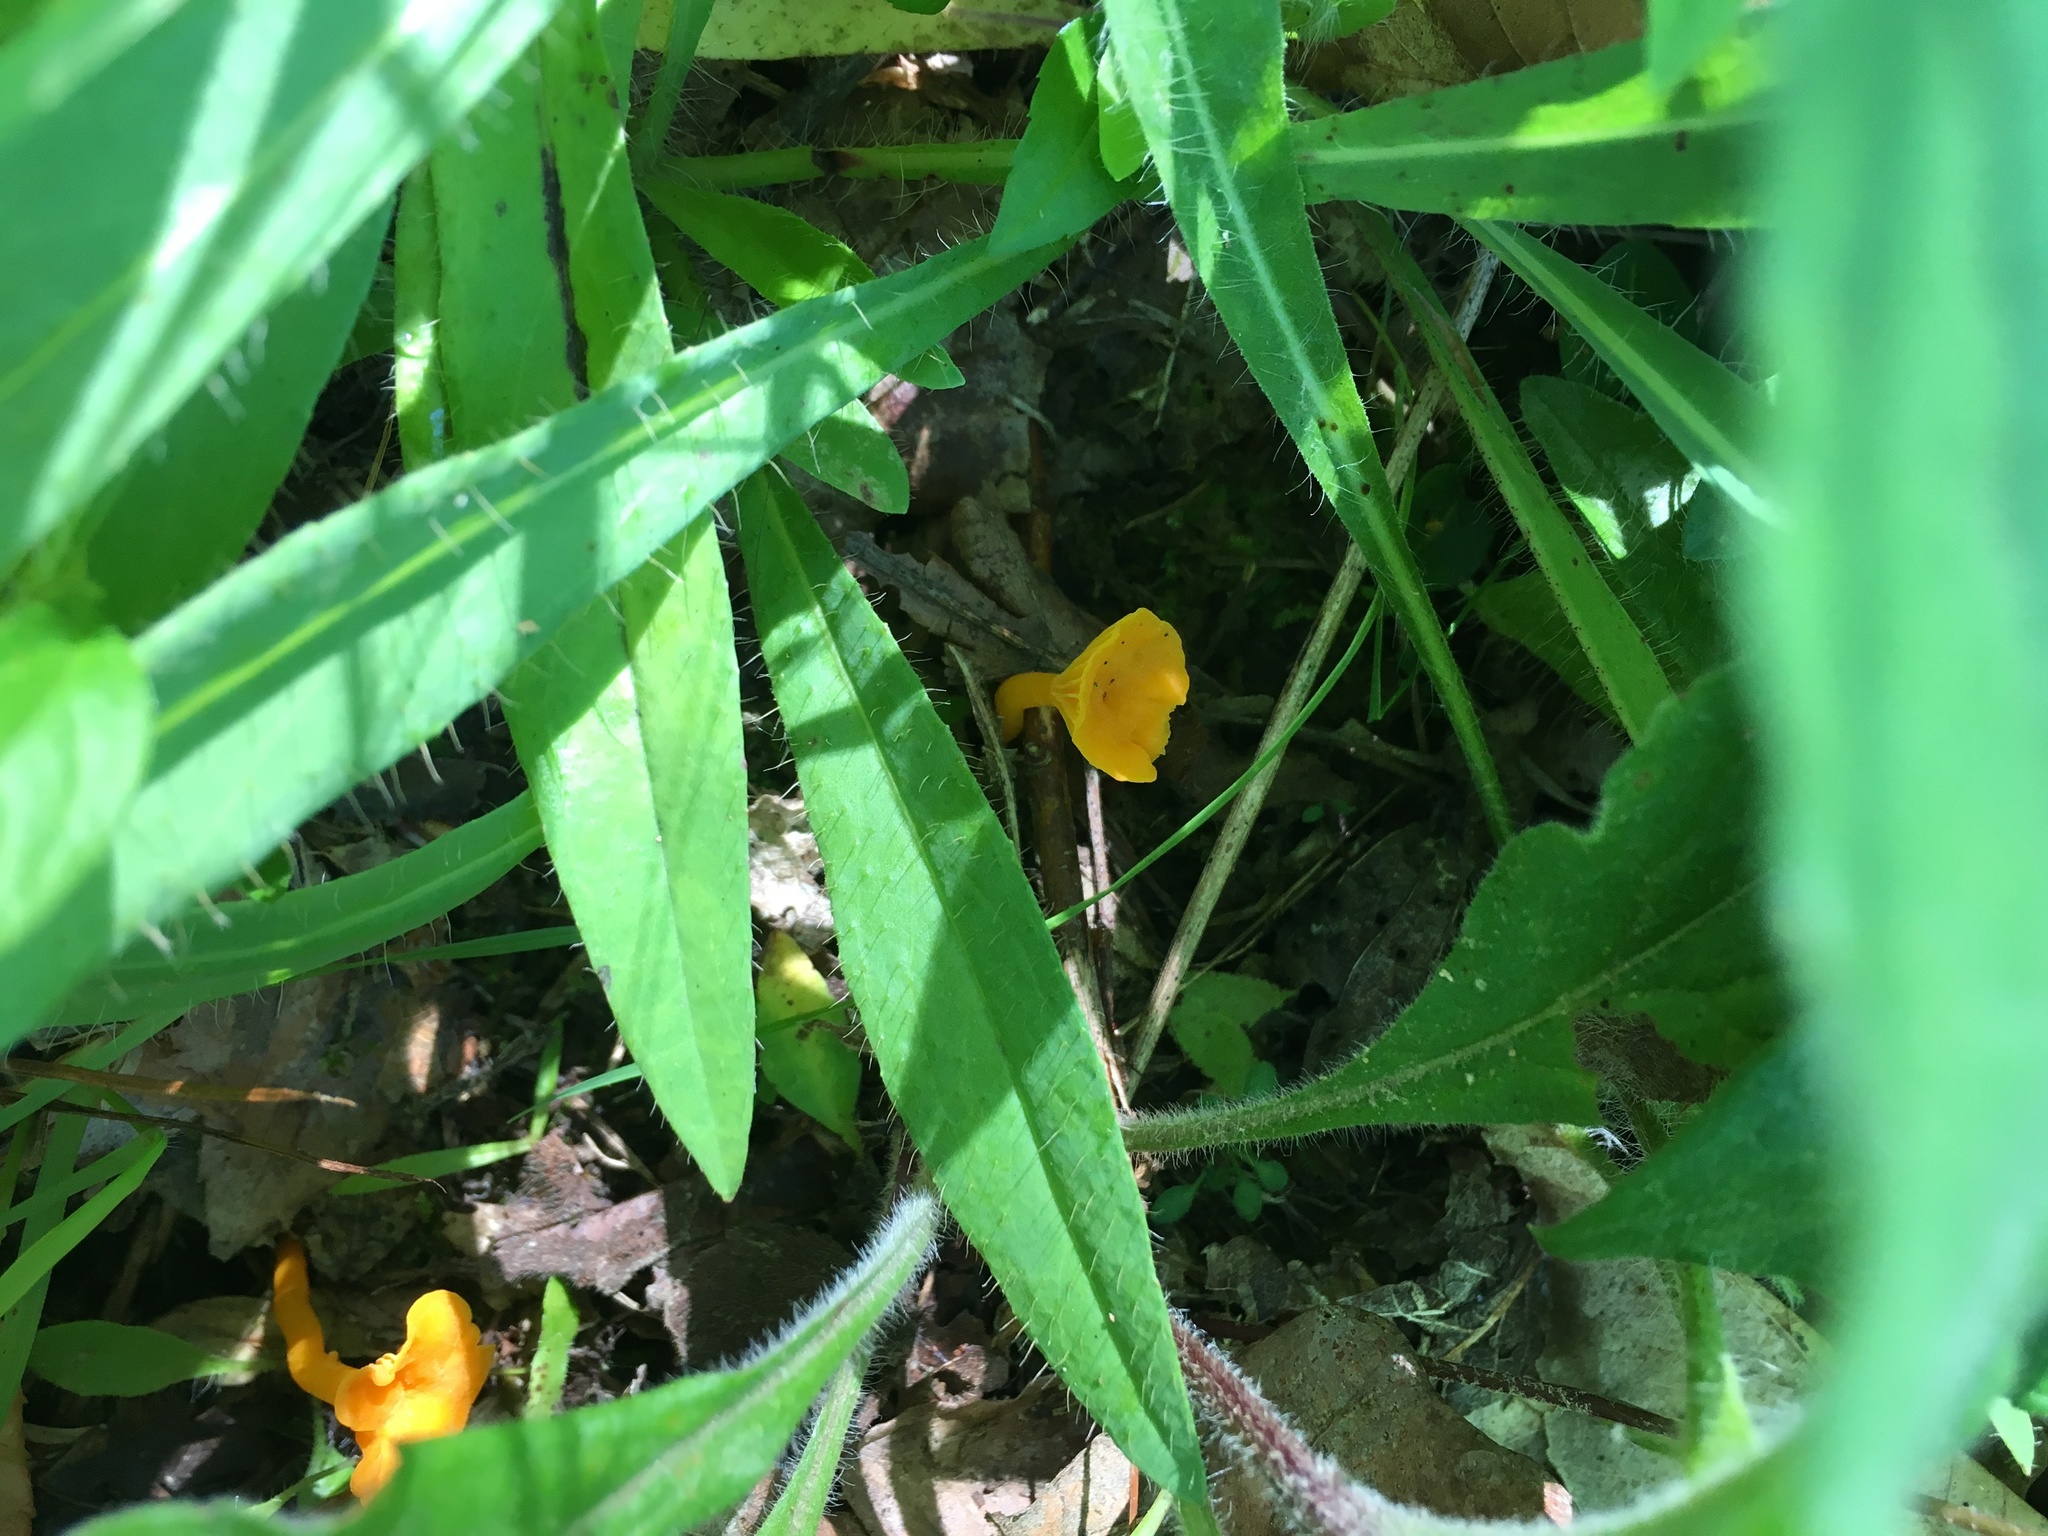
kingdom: Fungi
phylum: Basidiomycota
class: Agaricomycetes
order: Cantharellales
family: Hydnaceae
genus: Cantharellus
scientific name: Cantharellus minor
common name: Small chanterelle
